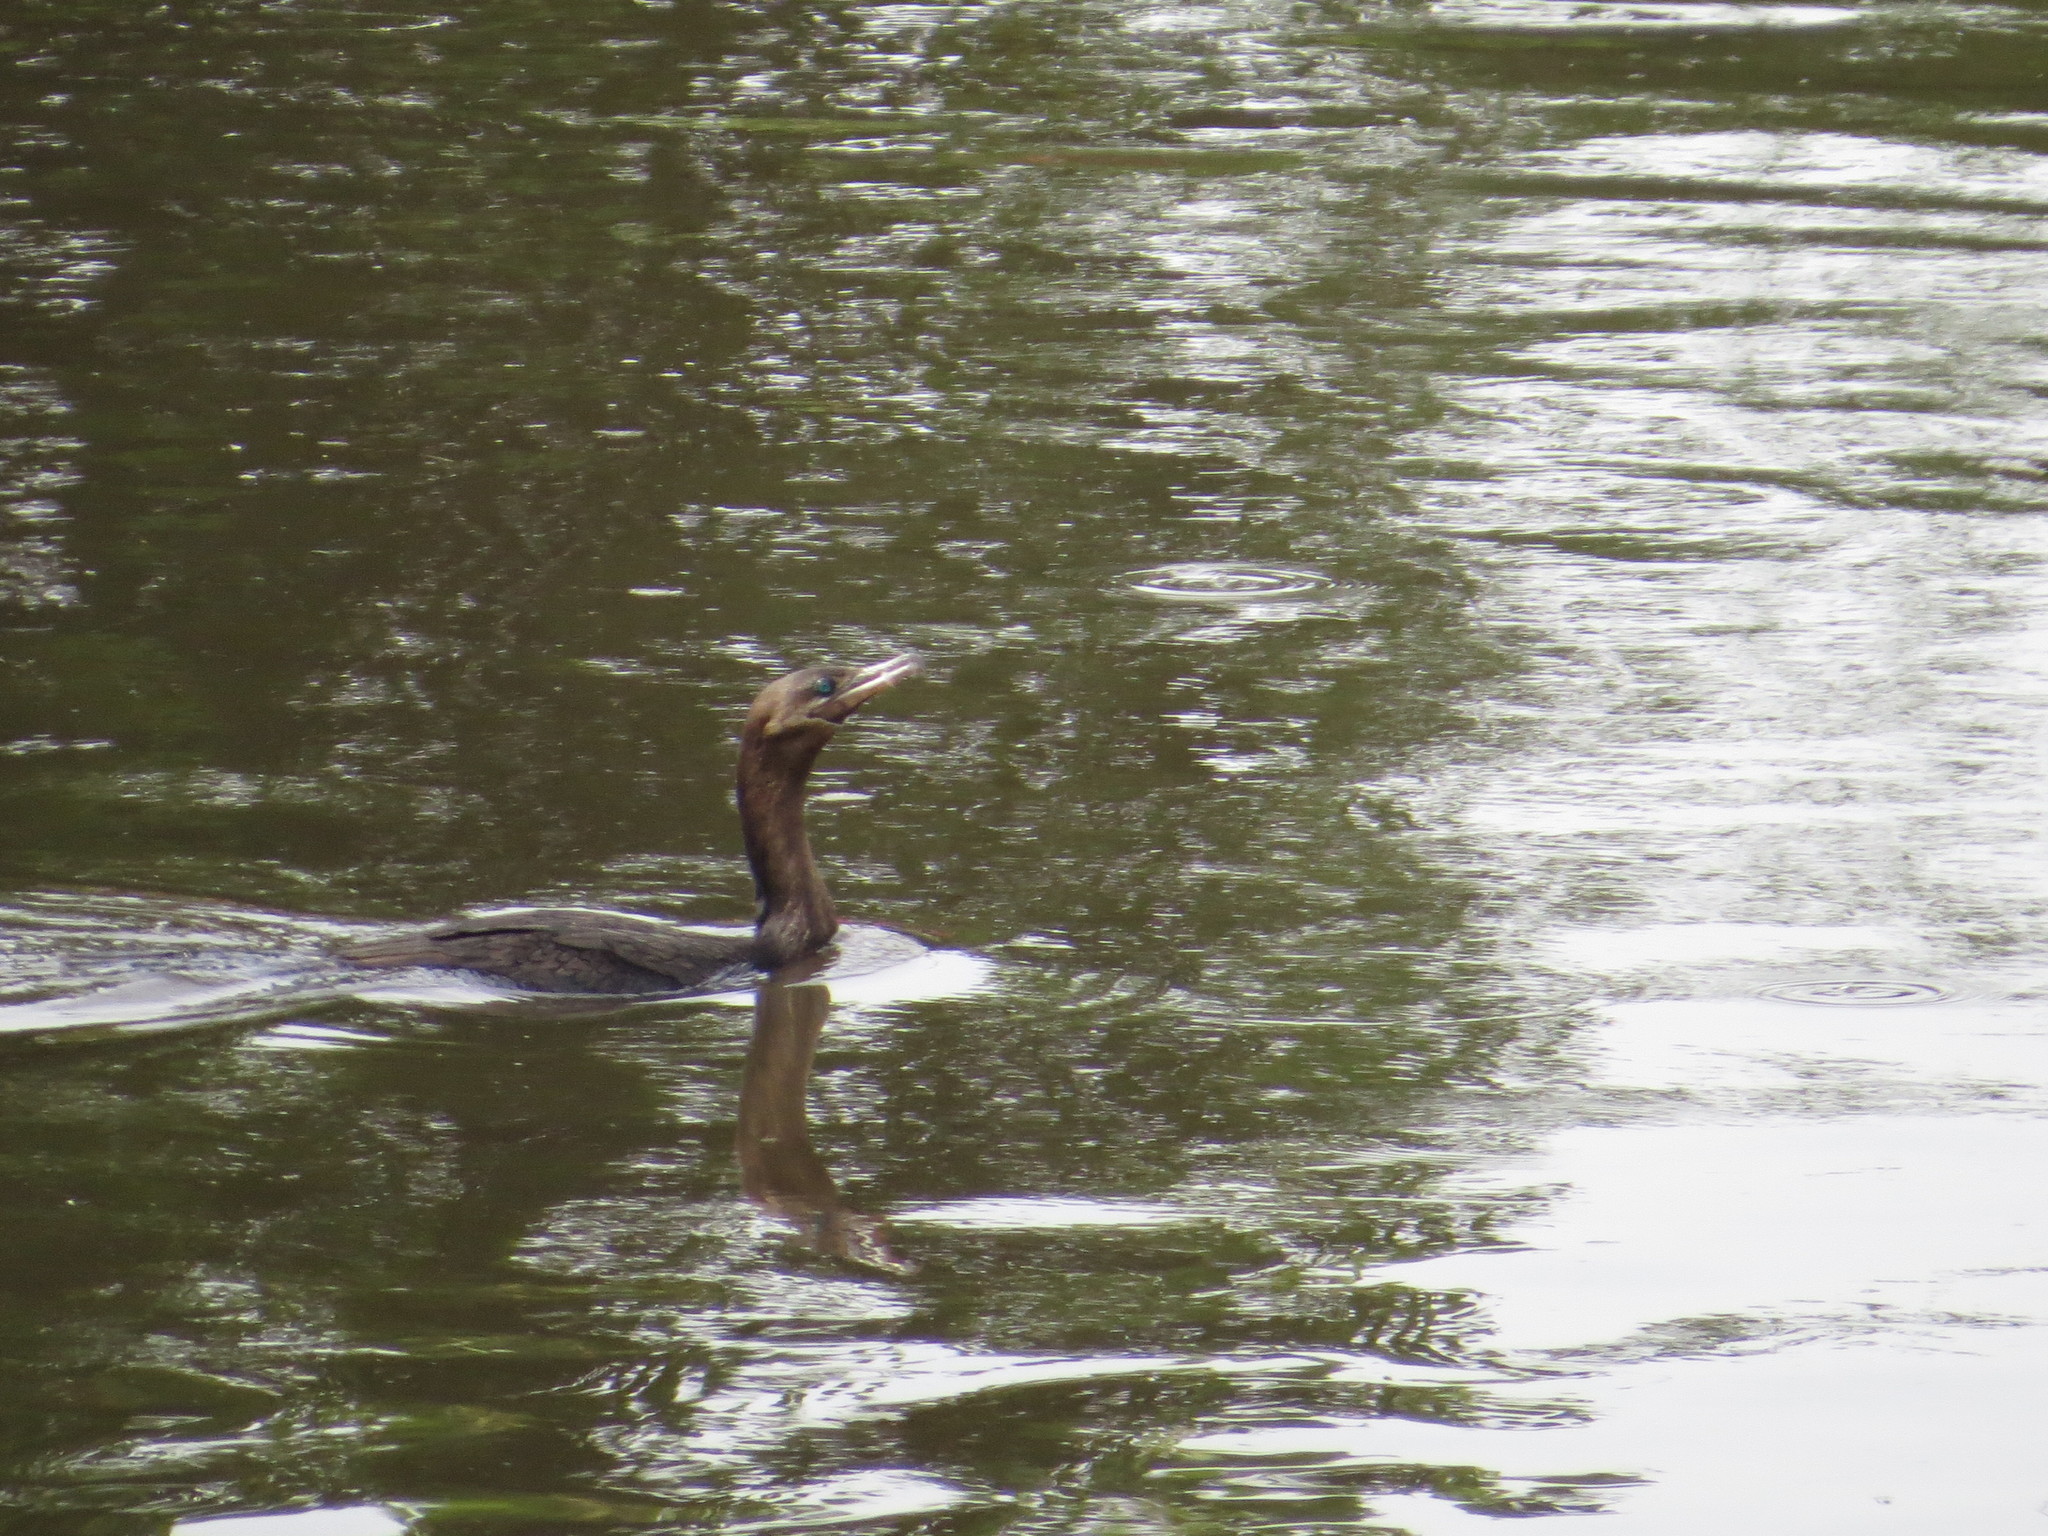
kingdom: Animalia
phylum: Chordata
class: Aves
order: Suliformes
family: Phalacrocoracidae
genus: Phalacrocorax
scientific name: Phalacrocorax brasilianus
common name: Neotropic cormorant
